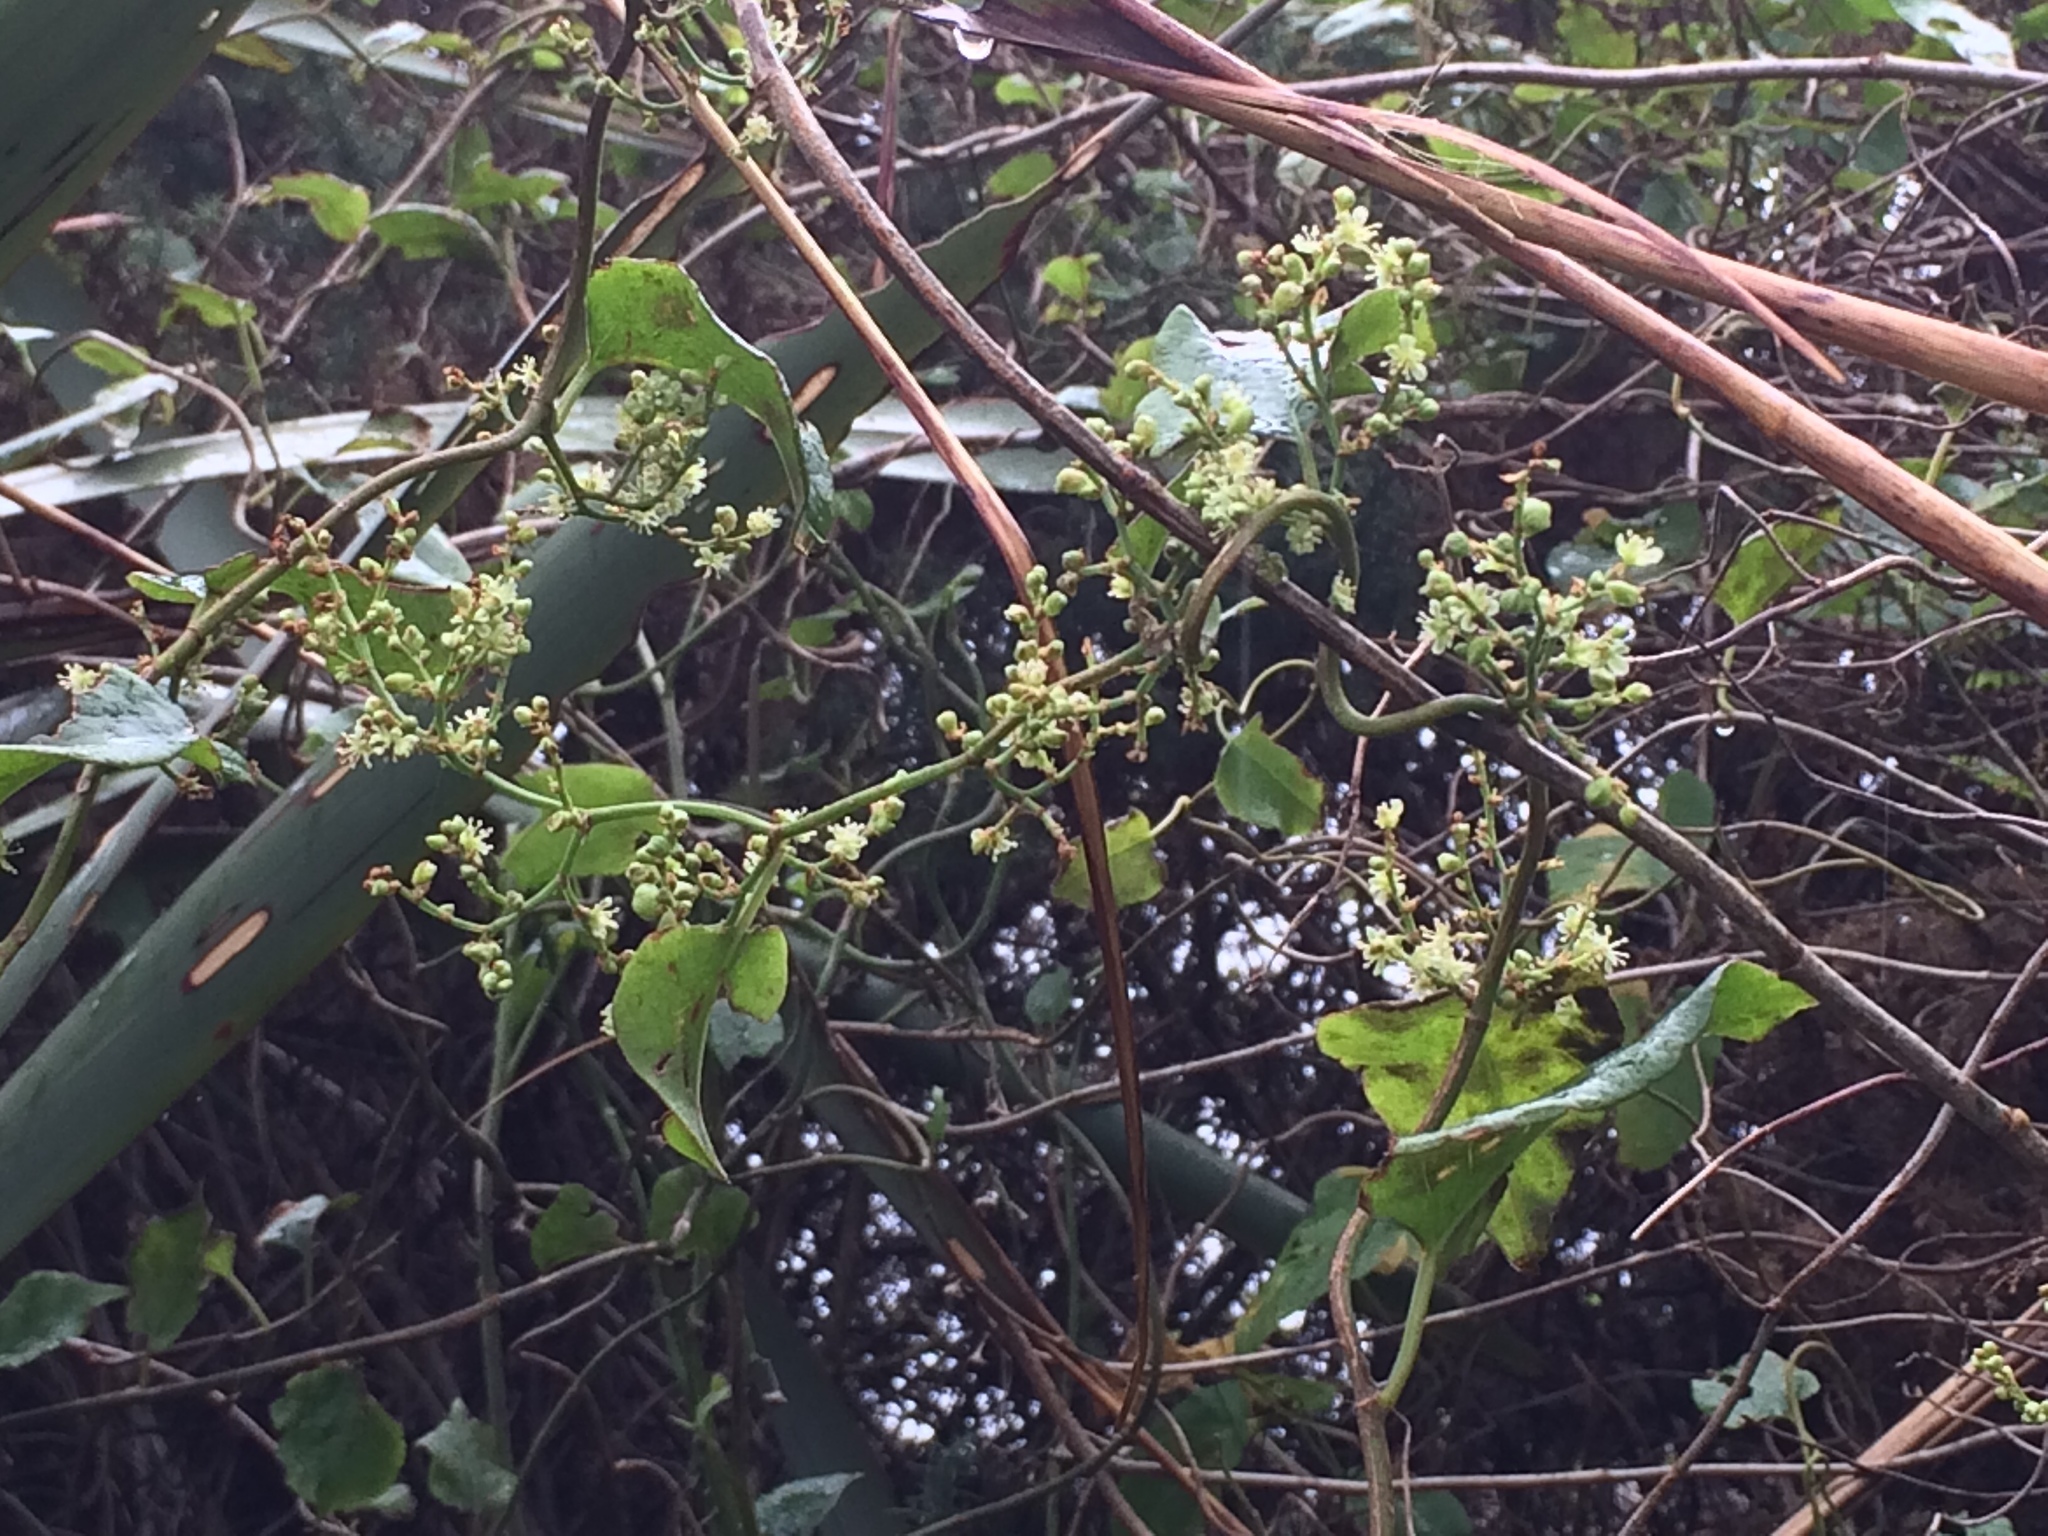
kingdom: Plantae
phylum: Tracheophyta
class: Magnoliopsida
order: Caryophyllales
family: Polygonaceae
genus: Muehlenbeckia
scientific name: Muehlenbeckia australis
